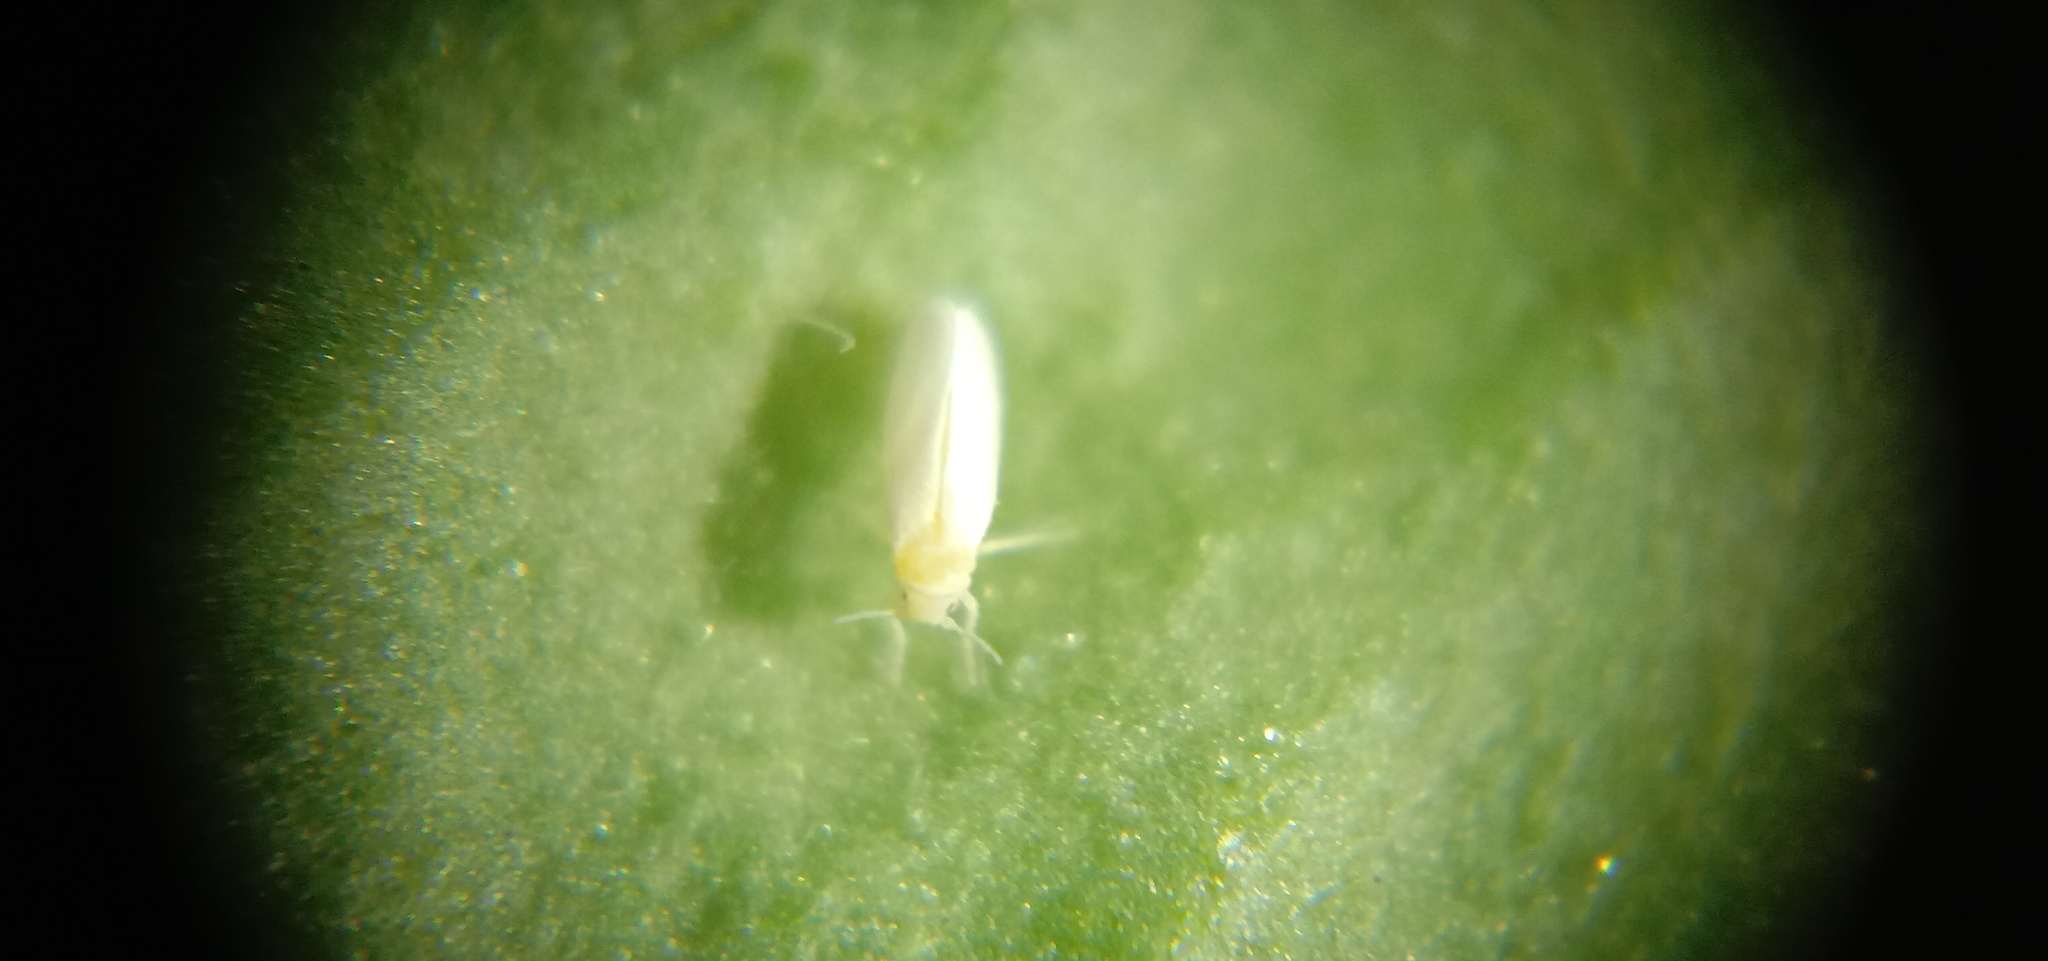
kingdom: Animalia
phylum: Arthropoda
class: Insecta
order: Hemiptera
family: Aleyrodidae
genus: Bemisia
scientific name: Bemisia tabaci
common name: Sweetpotato whitefly
